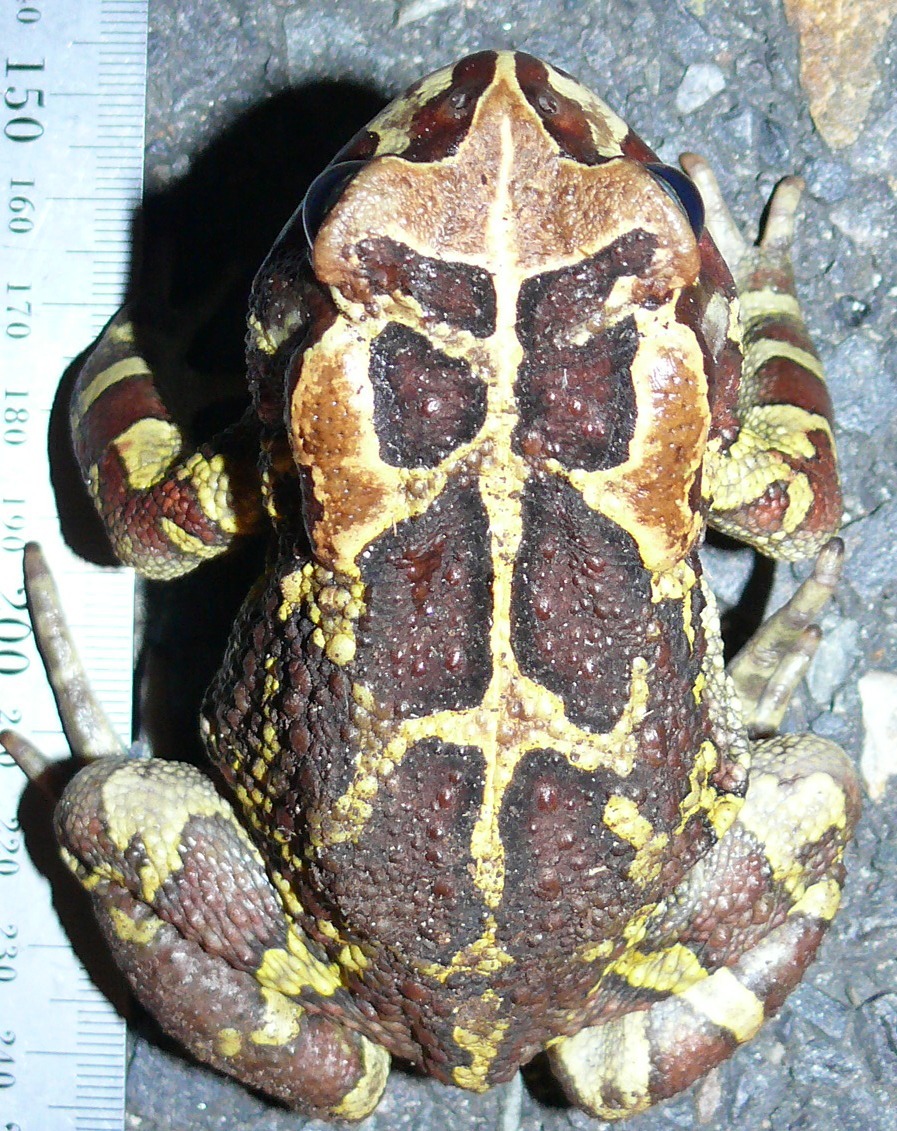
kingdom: Animalia
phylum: Chordata
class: Amphibia
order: Anura
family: Bufonidae
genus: Sclerophrys
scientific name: Sclerophrys pantherina
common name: Panther toad
